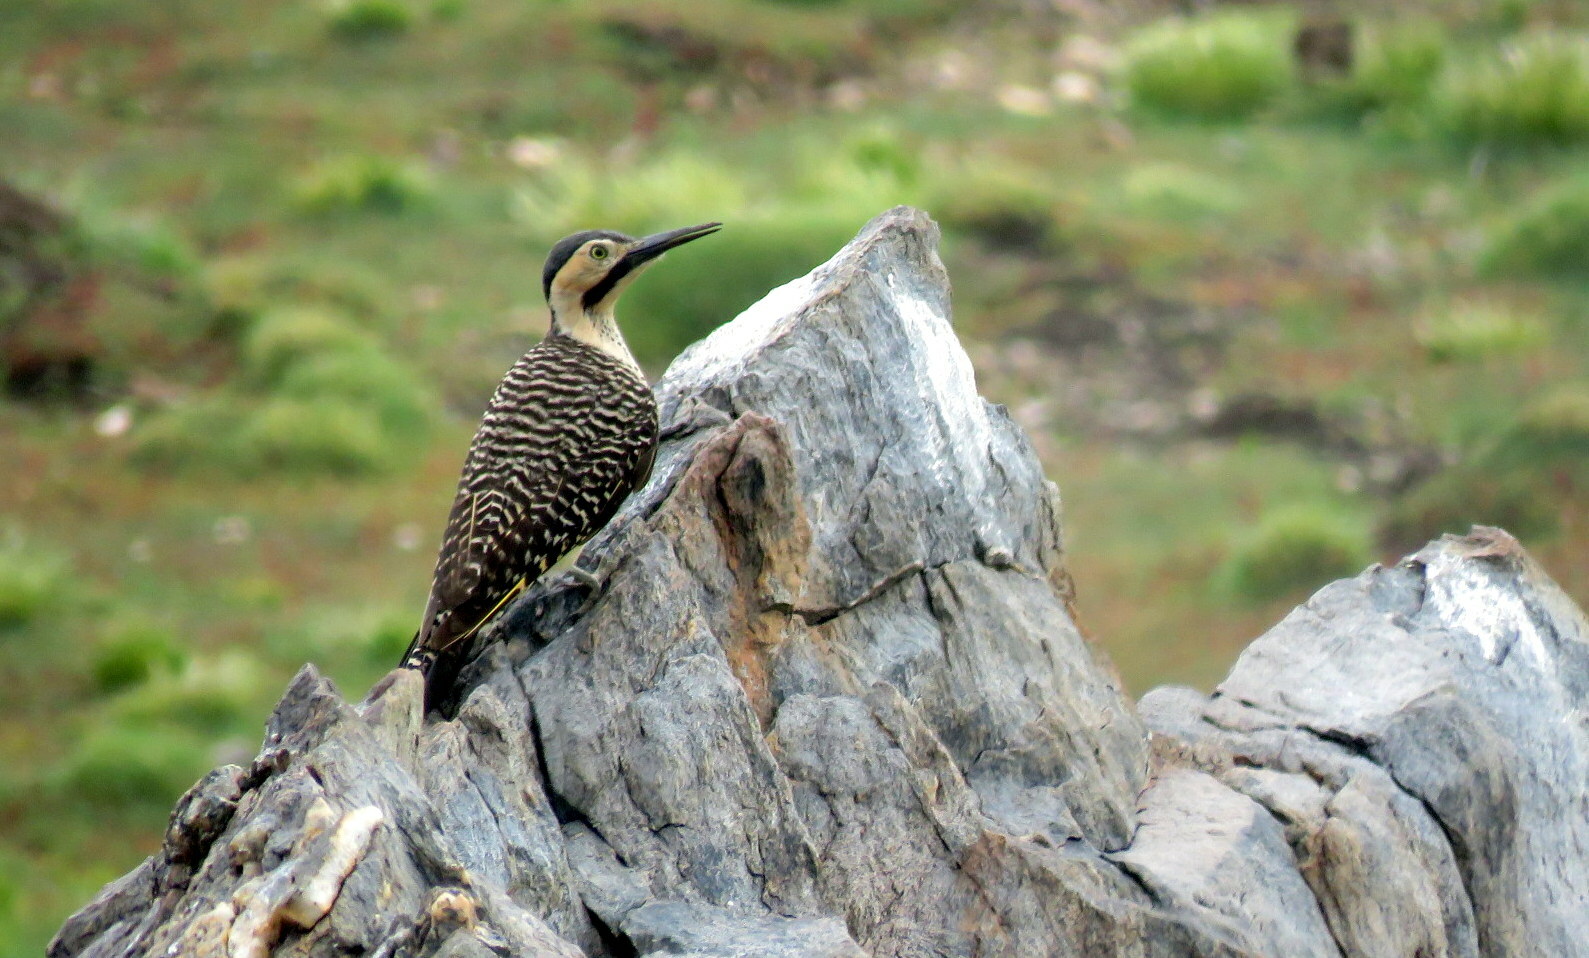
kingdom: Animalia
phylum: Chordata
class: Aves
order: Piciformes
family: Picidae
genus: Colaptes
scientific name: Colaptes rupicola
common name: Andean flicker
